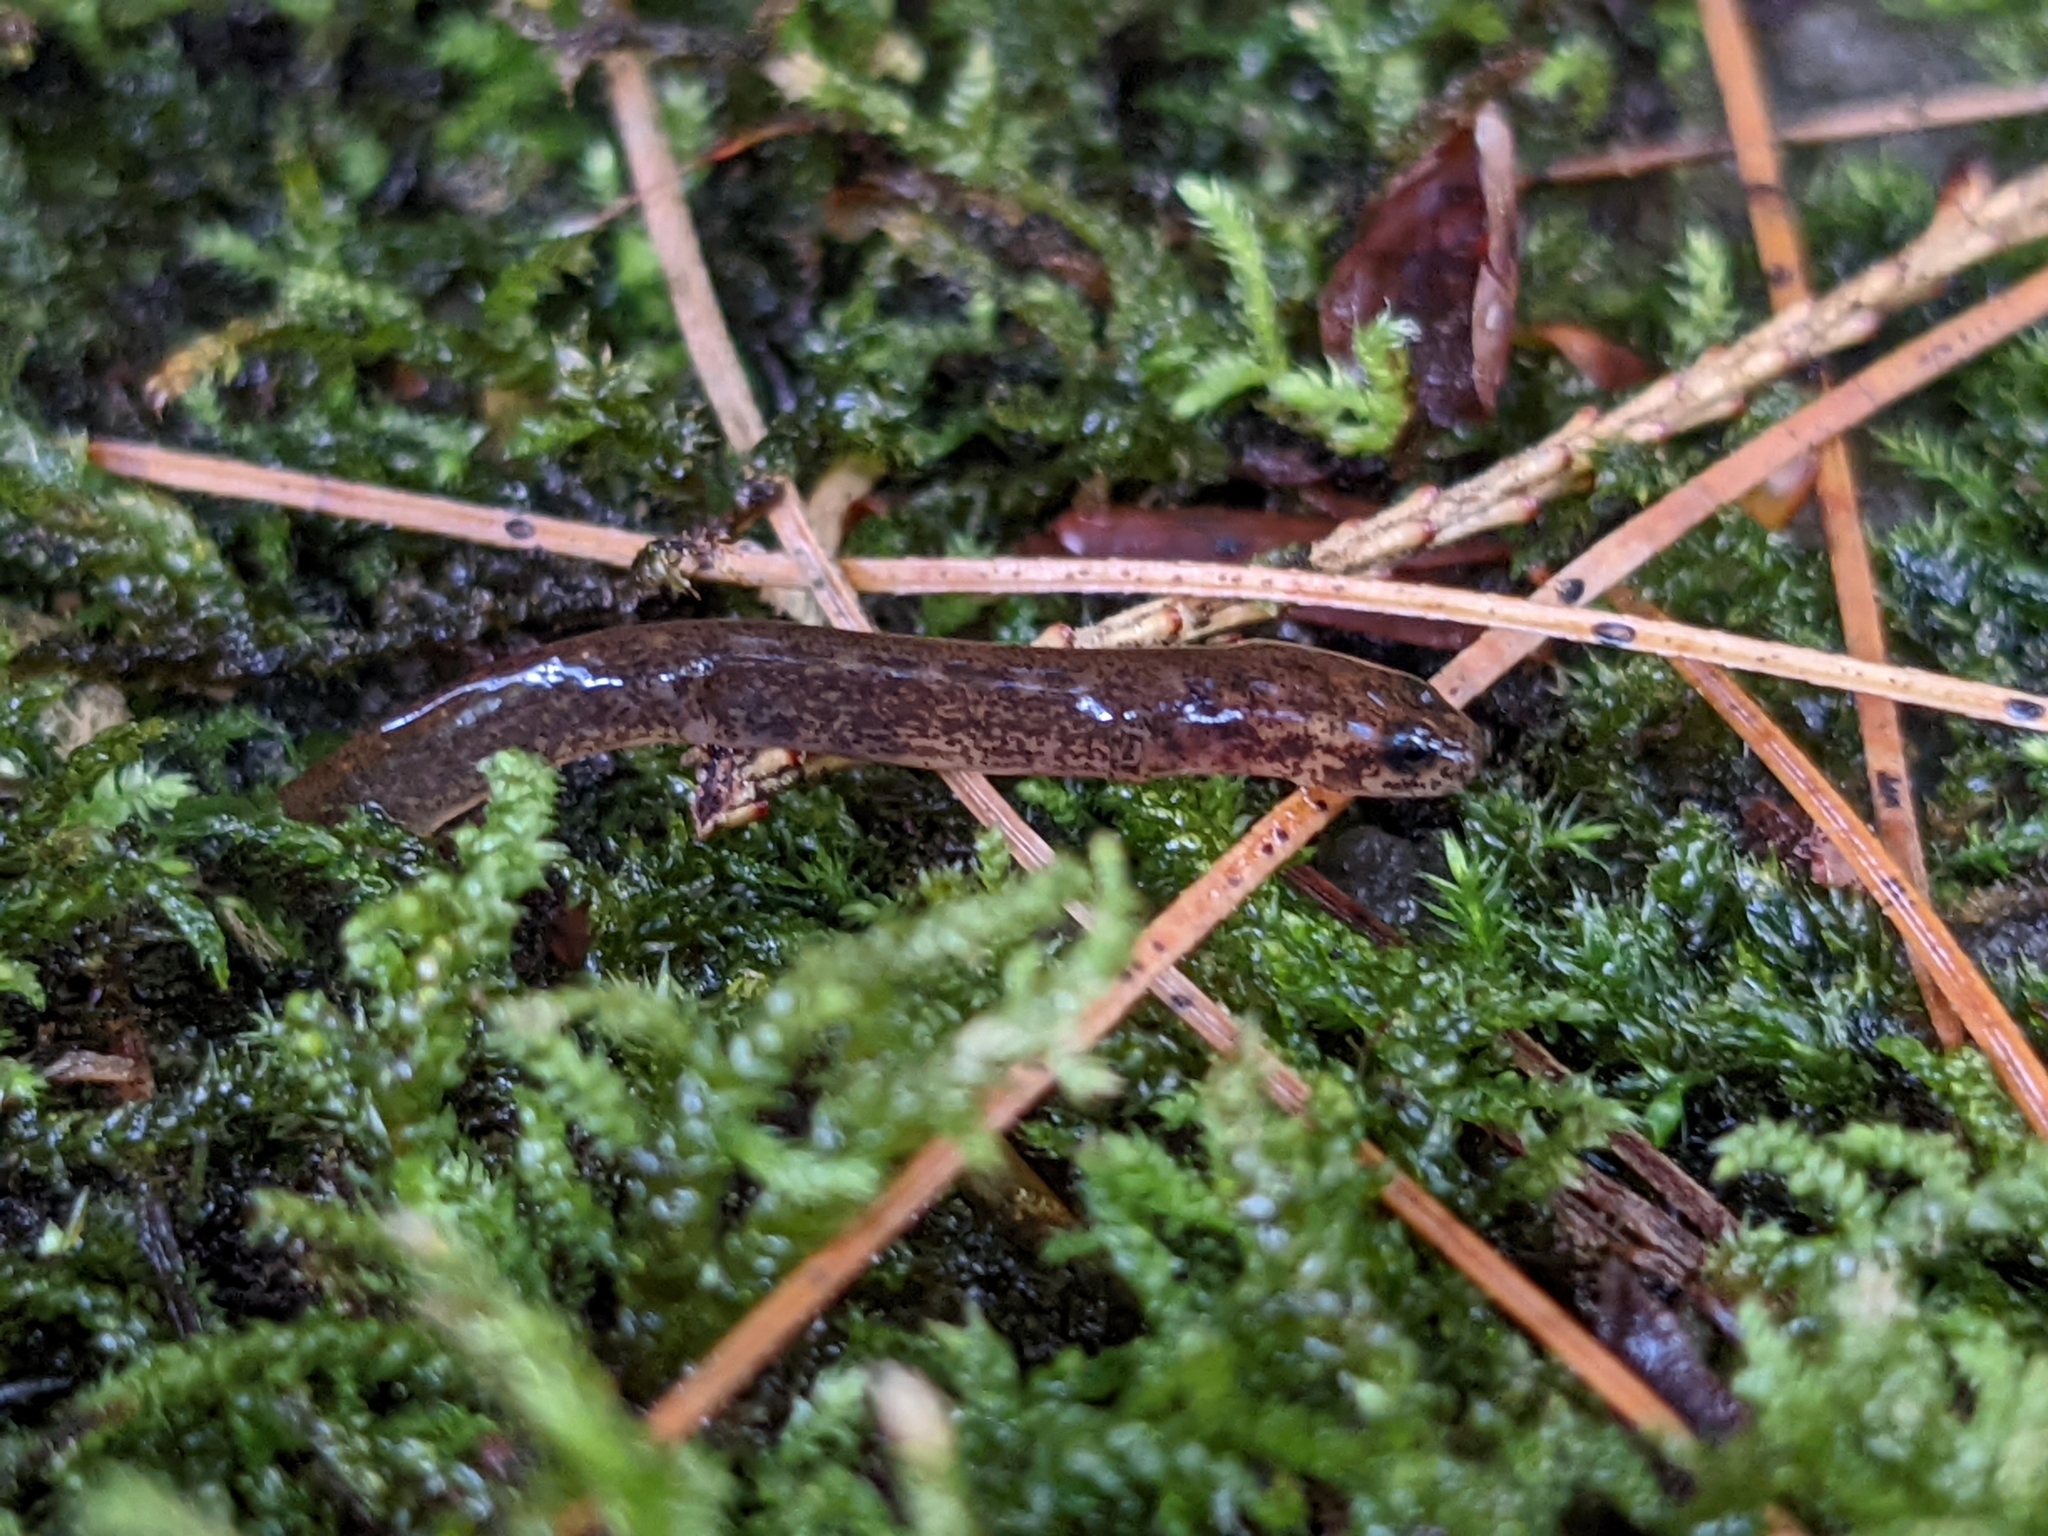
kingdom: Animalia
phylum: Chordata
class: Amphibia
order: Caudata
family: Plethodontidae
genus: Eurycea
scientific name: Eurycea bislineata
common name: Northern two-lined salamander
